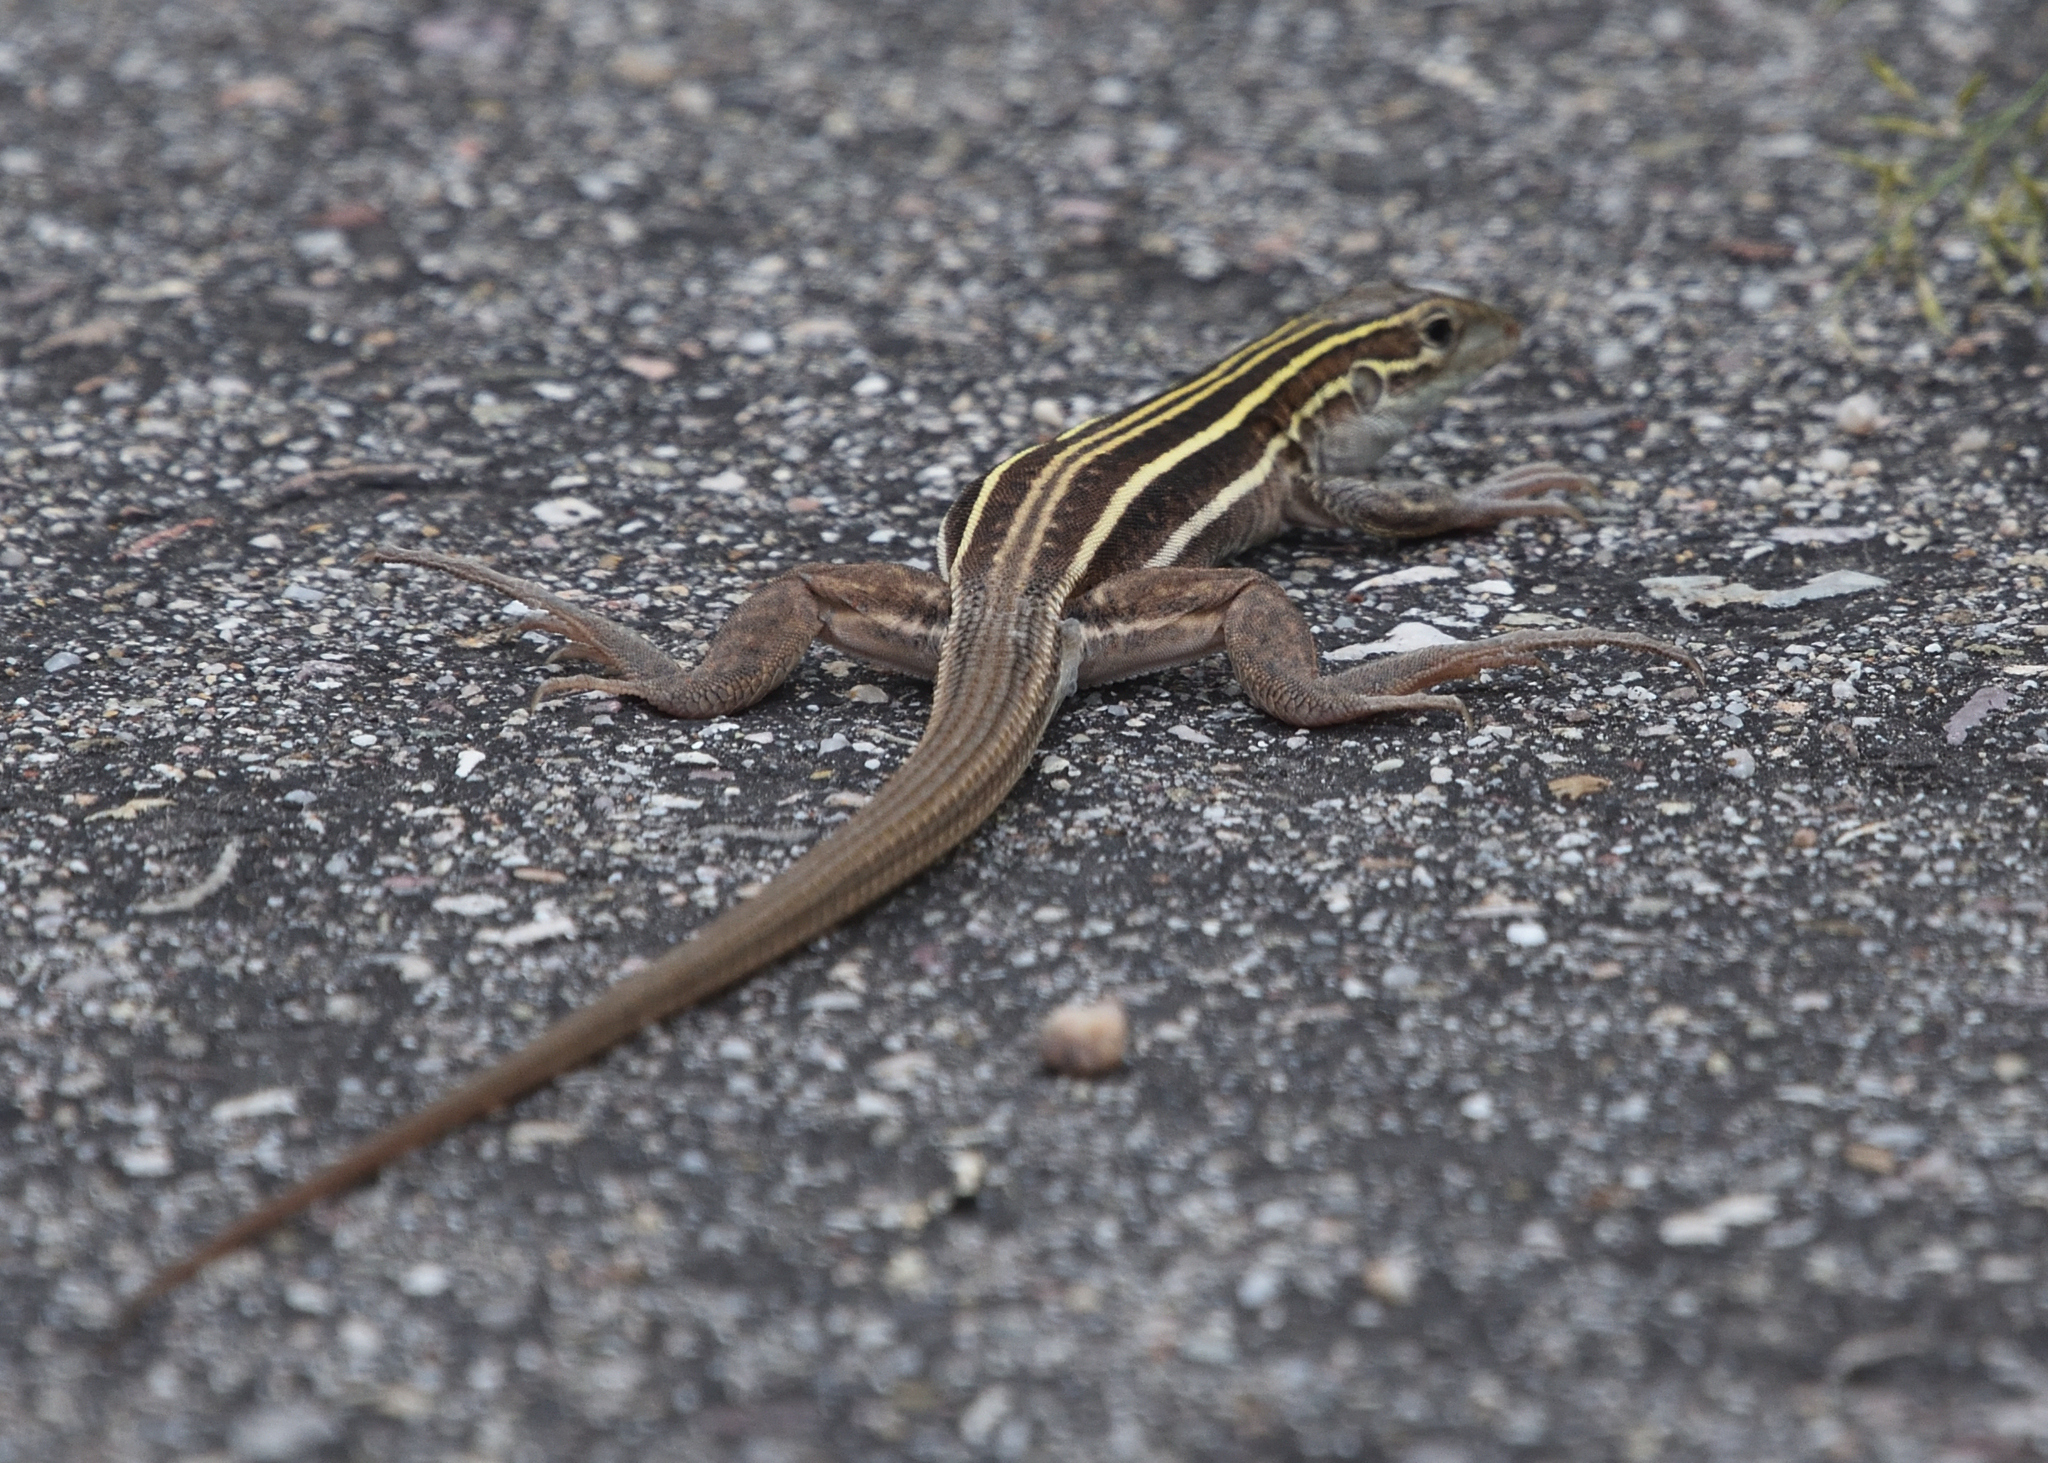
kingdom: Animalia
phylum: Chordata
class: Squamata
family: Teiidae
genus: Aspidoscelis
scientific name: Aspidoscelis sonorae
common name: Sonoran spotted whiptail
